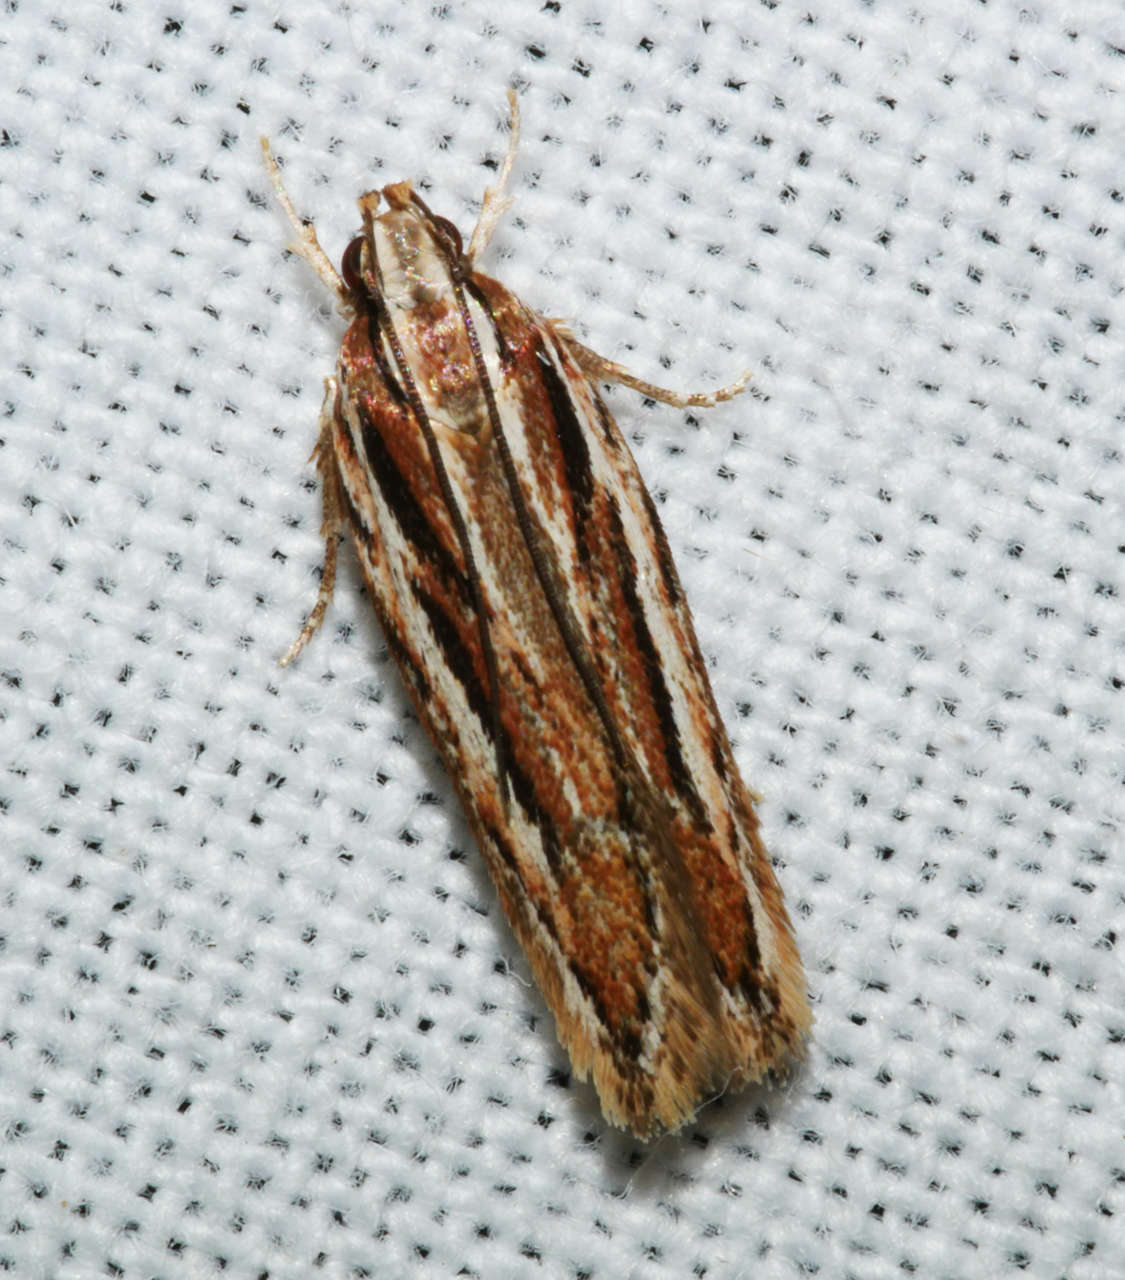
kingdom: Animalia
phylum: Arthropoda
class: Insecta
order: Lepidoptera
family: Gelechiidae
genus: Ardozyga
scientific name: Ardozyga obeliscota
